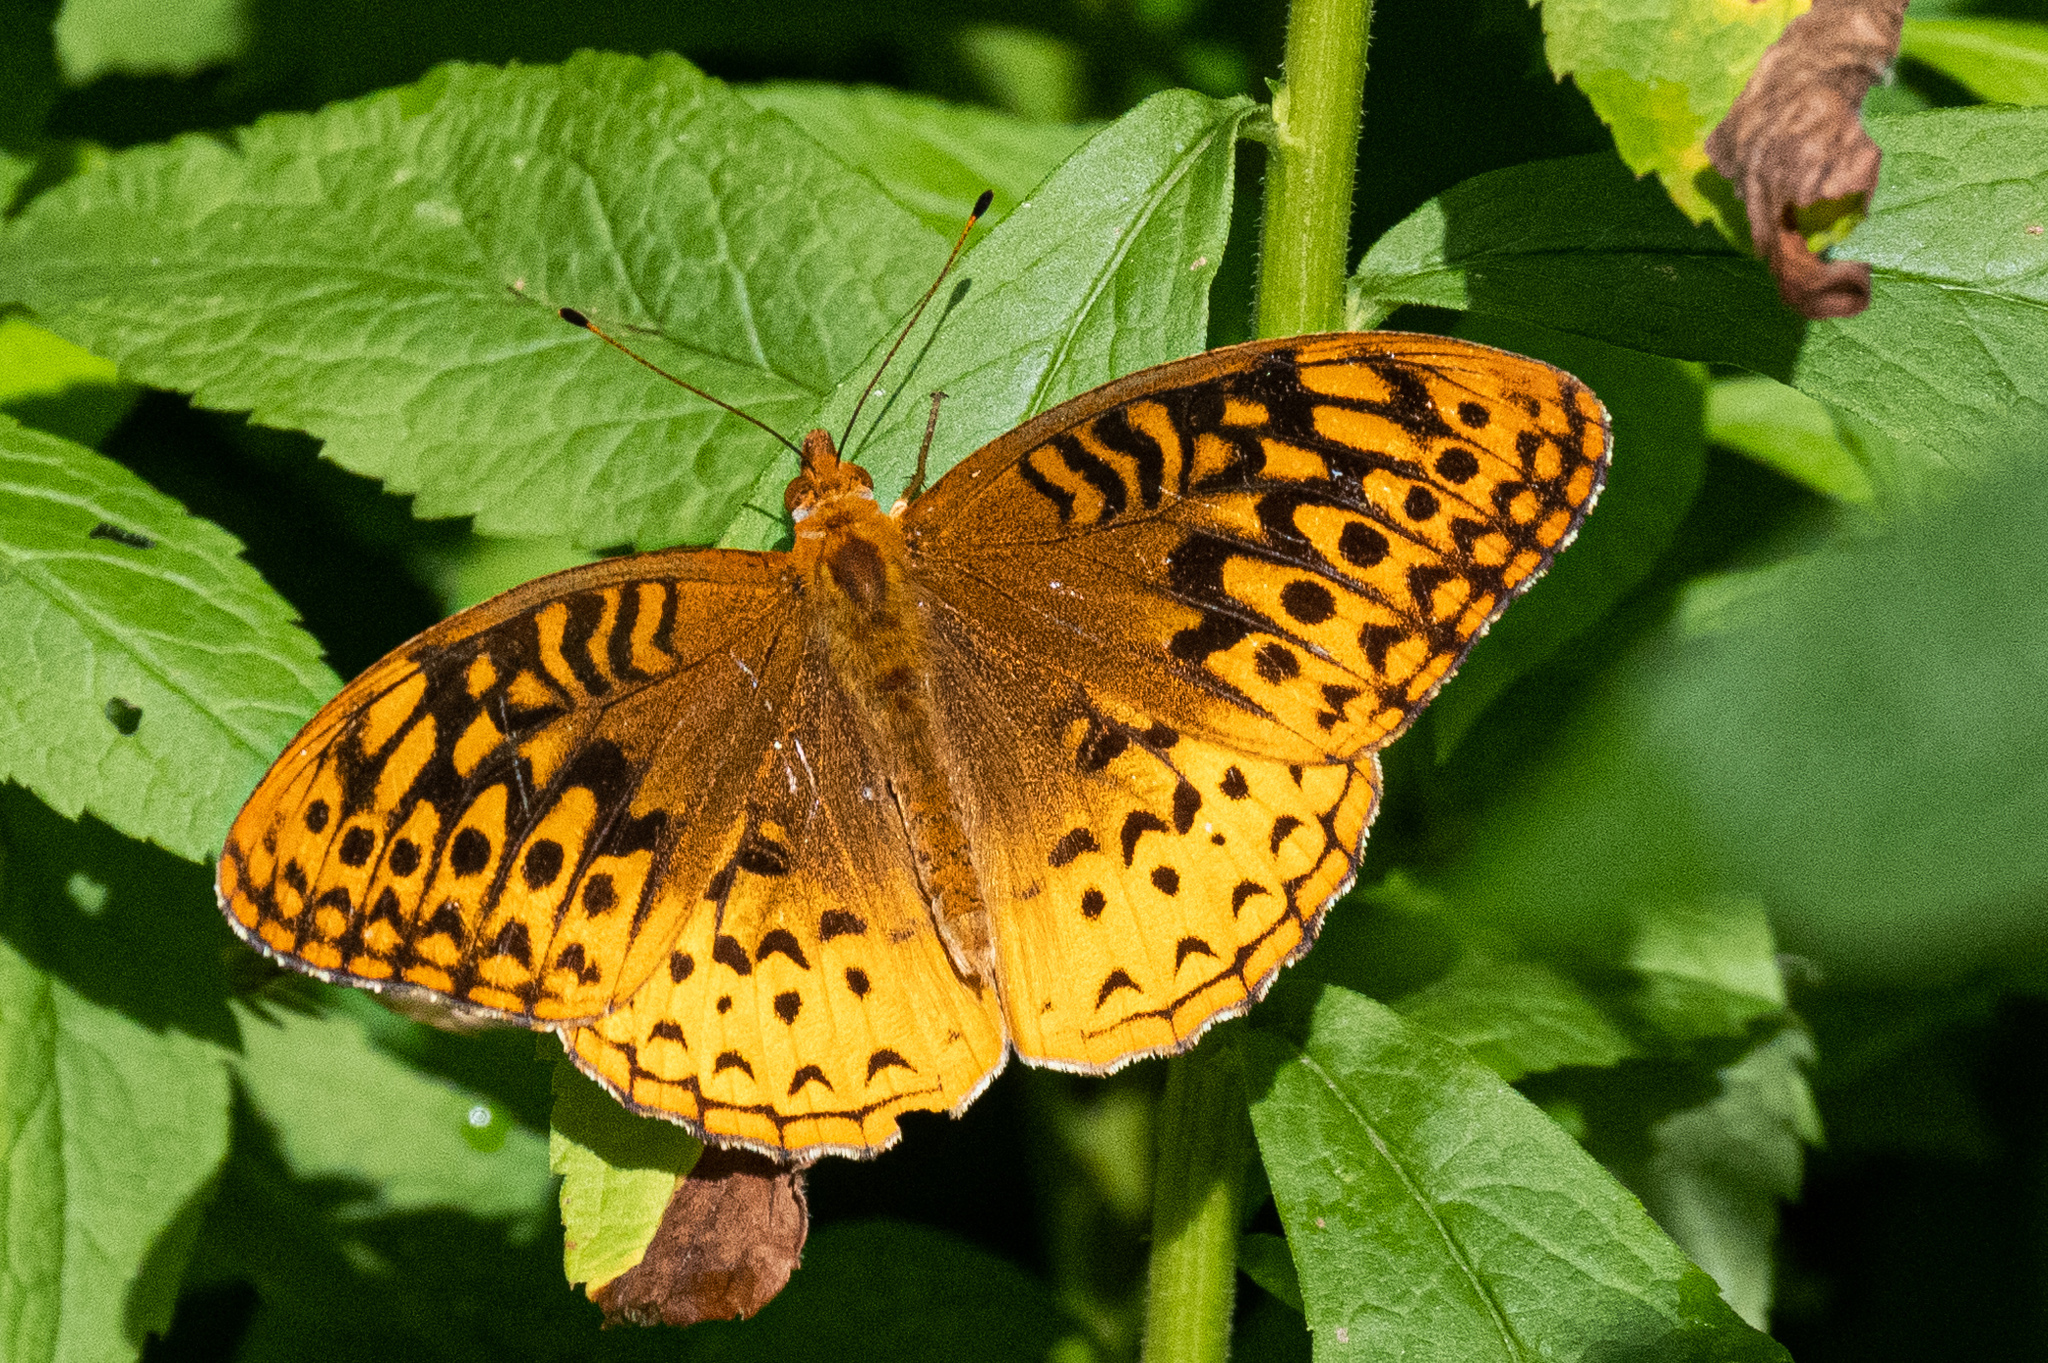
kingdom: Animalia
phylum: Arthropoda
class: Insecta
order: Lepidoptera
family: Nymphalidae
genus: Speyeria
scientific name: Speyeria cybele
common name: Great spangled fritillary
